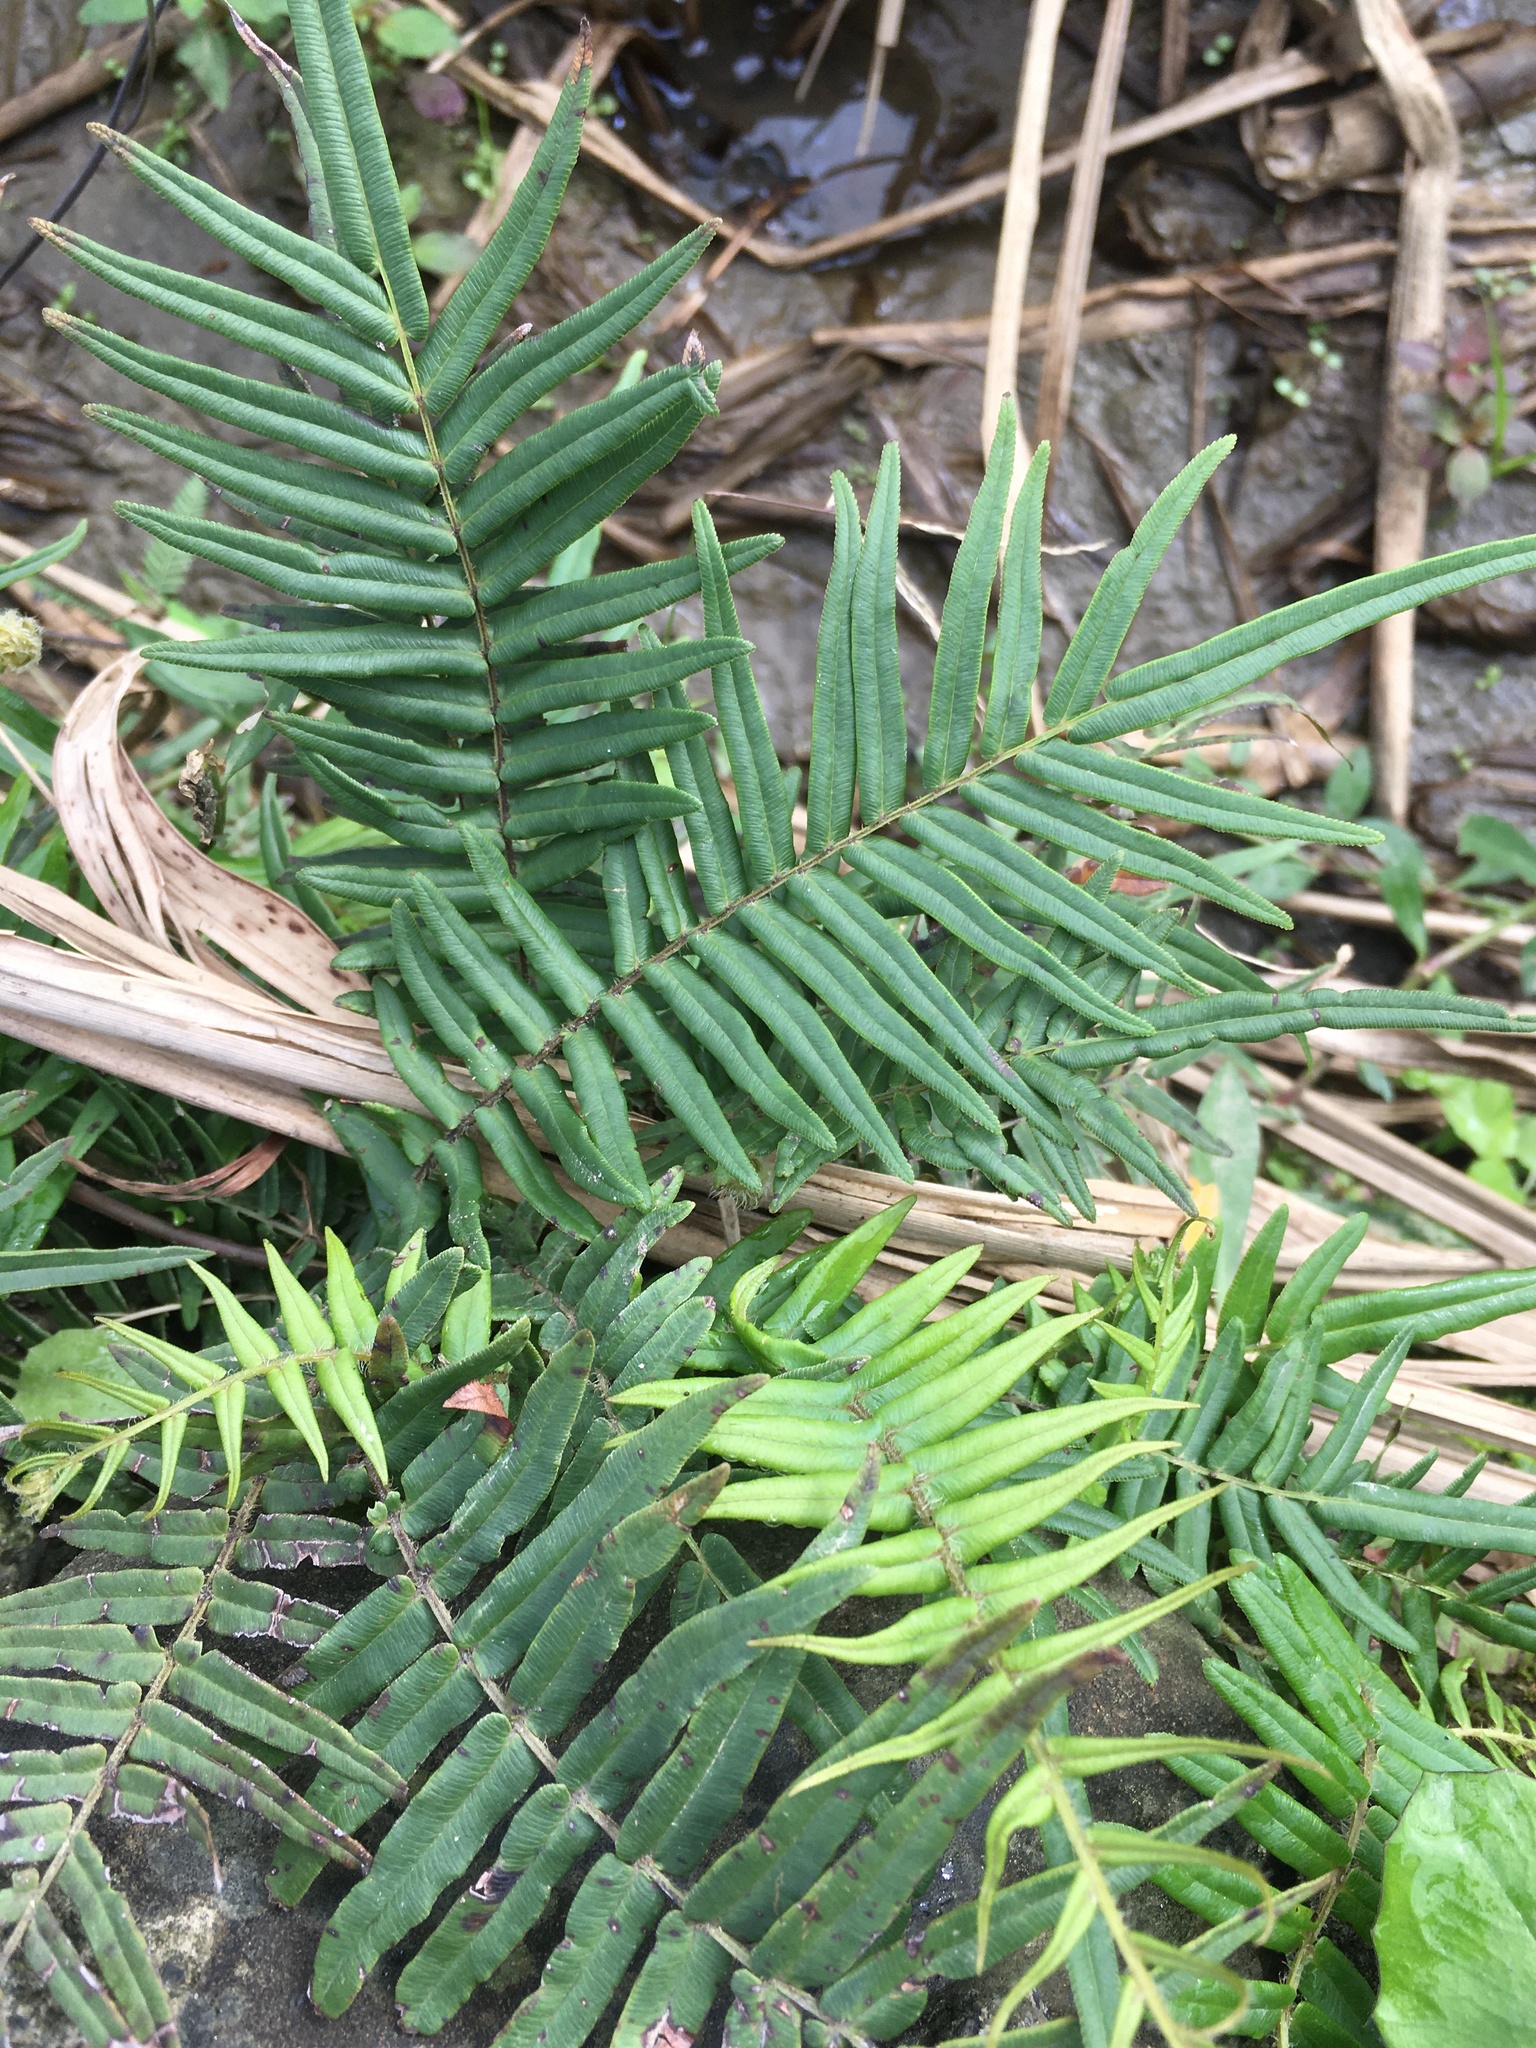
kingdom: Plantae
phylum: Tracheophyta
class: Polypodiopsida
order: Polypodiales
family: Pteridaceae
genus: Pteris
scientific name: Pteris vittata
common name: Ladder brake
